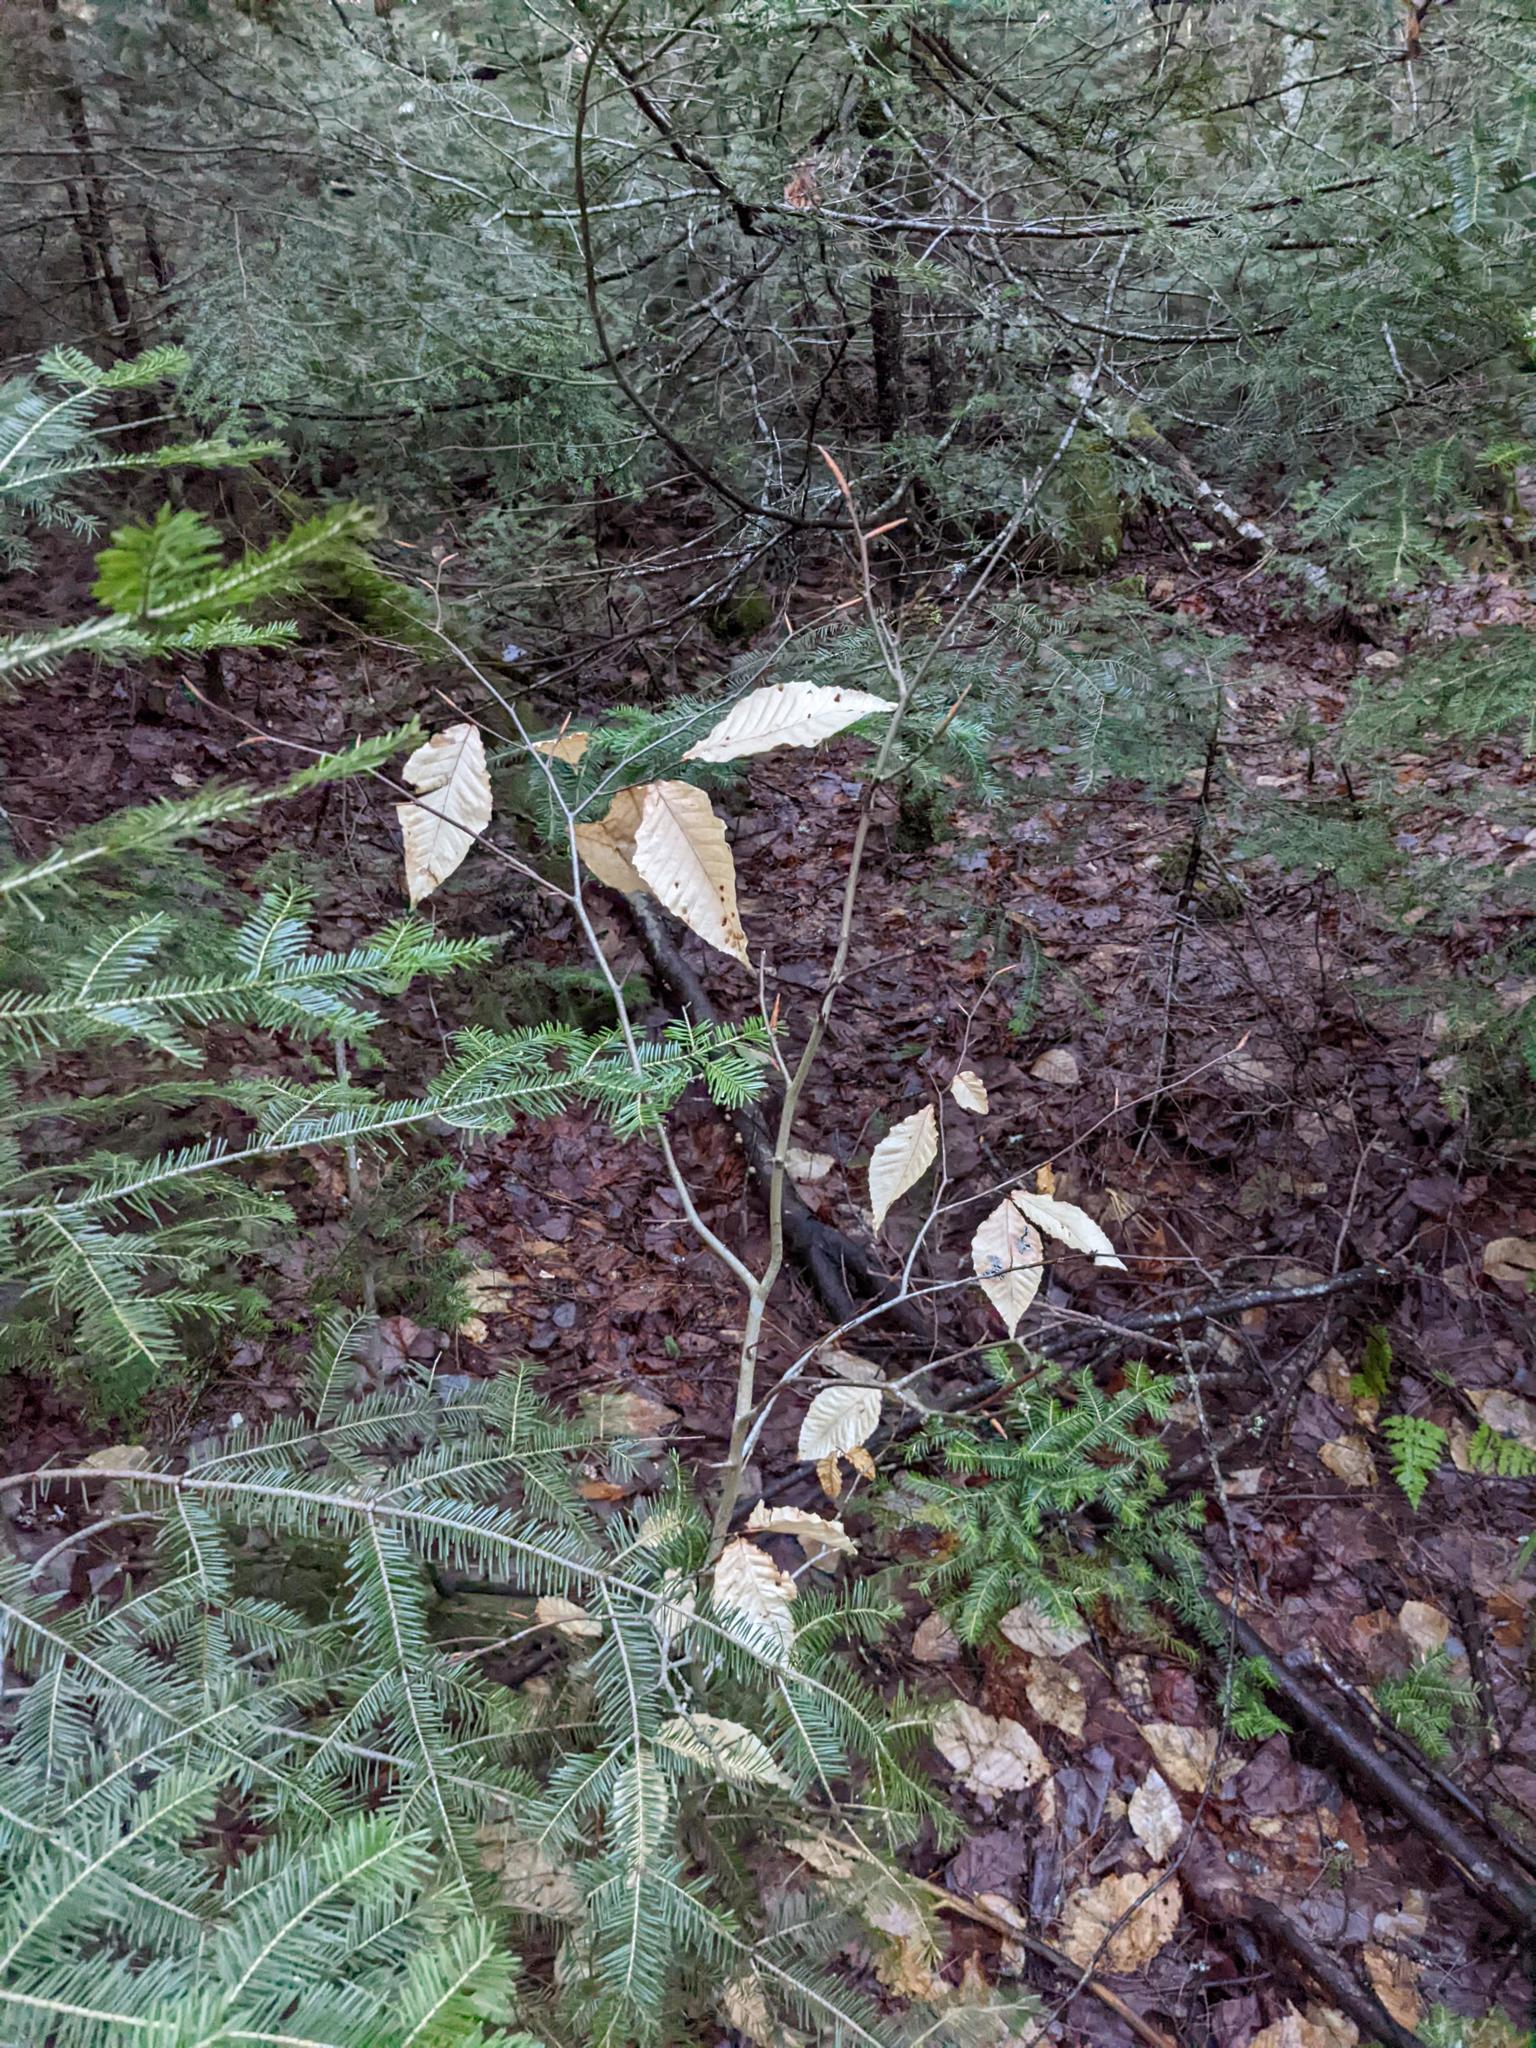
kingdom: Plantae
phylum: Tracheophyta
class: Magnoliopsida
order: Fagales
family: Fagaceae
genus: Fagus
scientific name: Fagus grandifolia
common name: American beech
